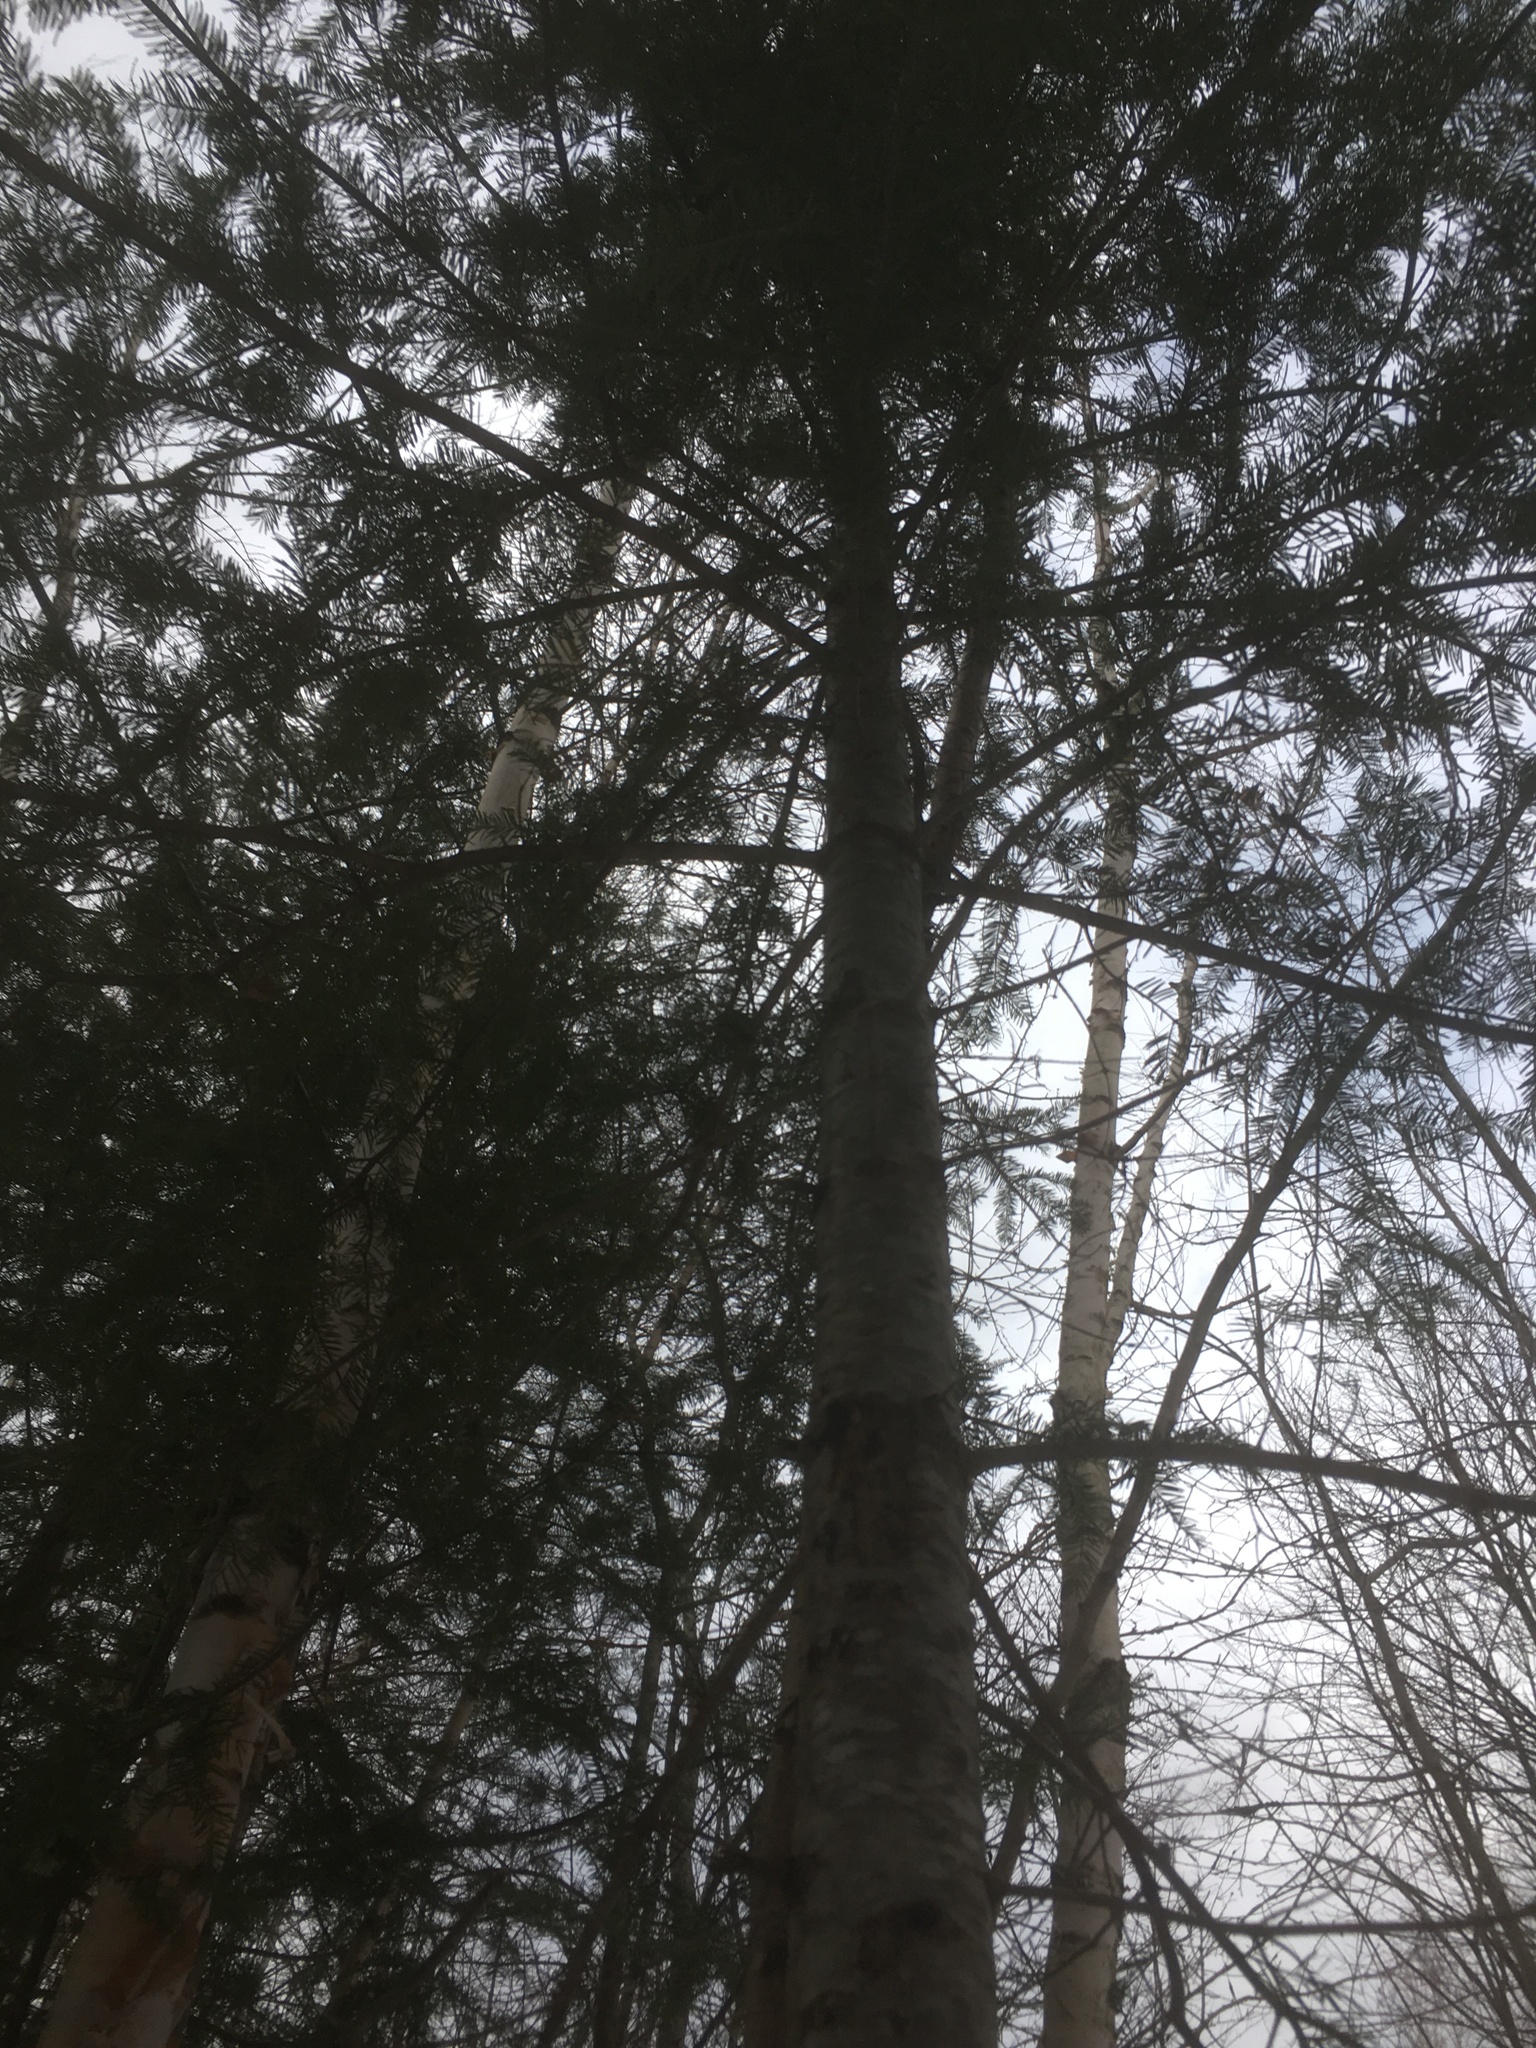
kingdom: Plantae
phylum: Tracheophyta
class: Pinopsida
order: Pinales
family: Pinaceae
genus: Abies
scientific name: Abies balsamea
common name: Balsam fir
